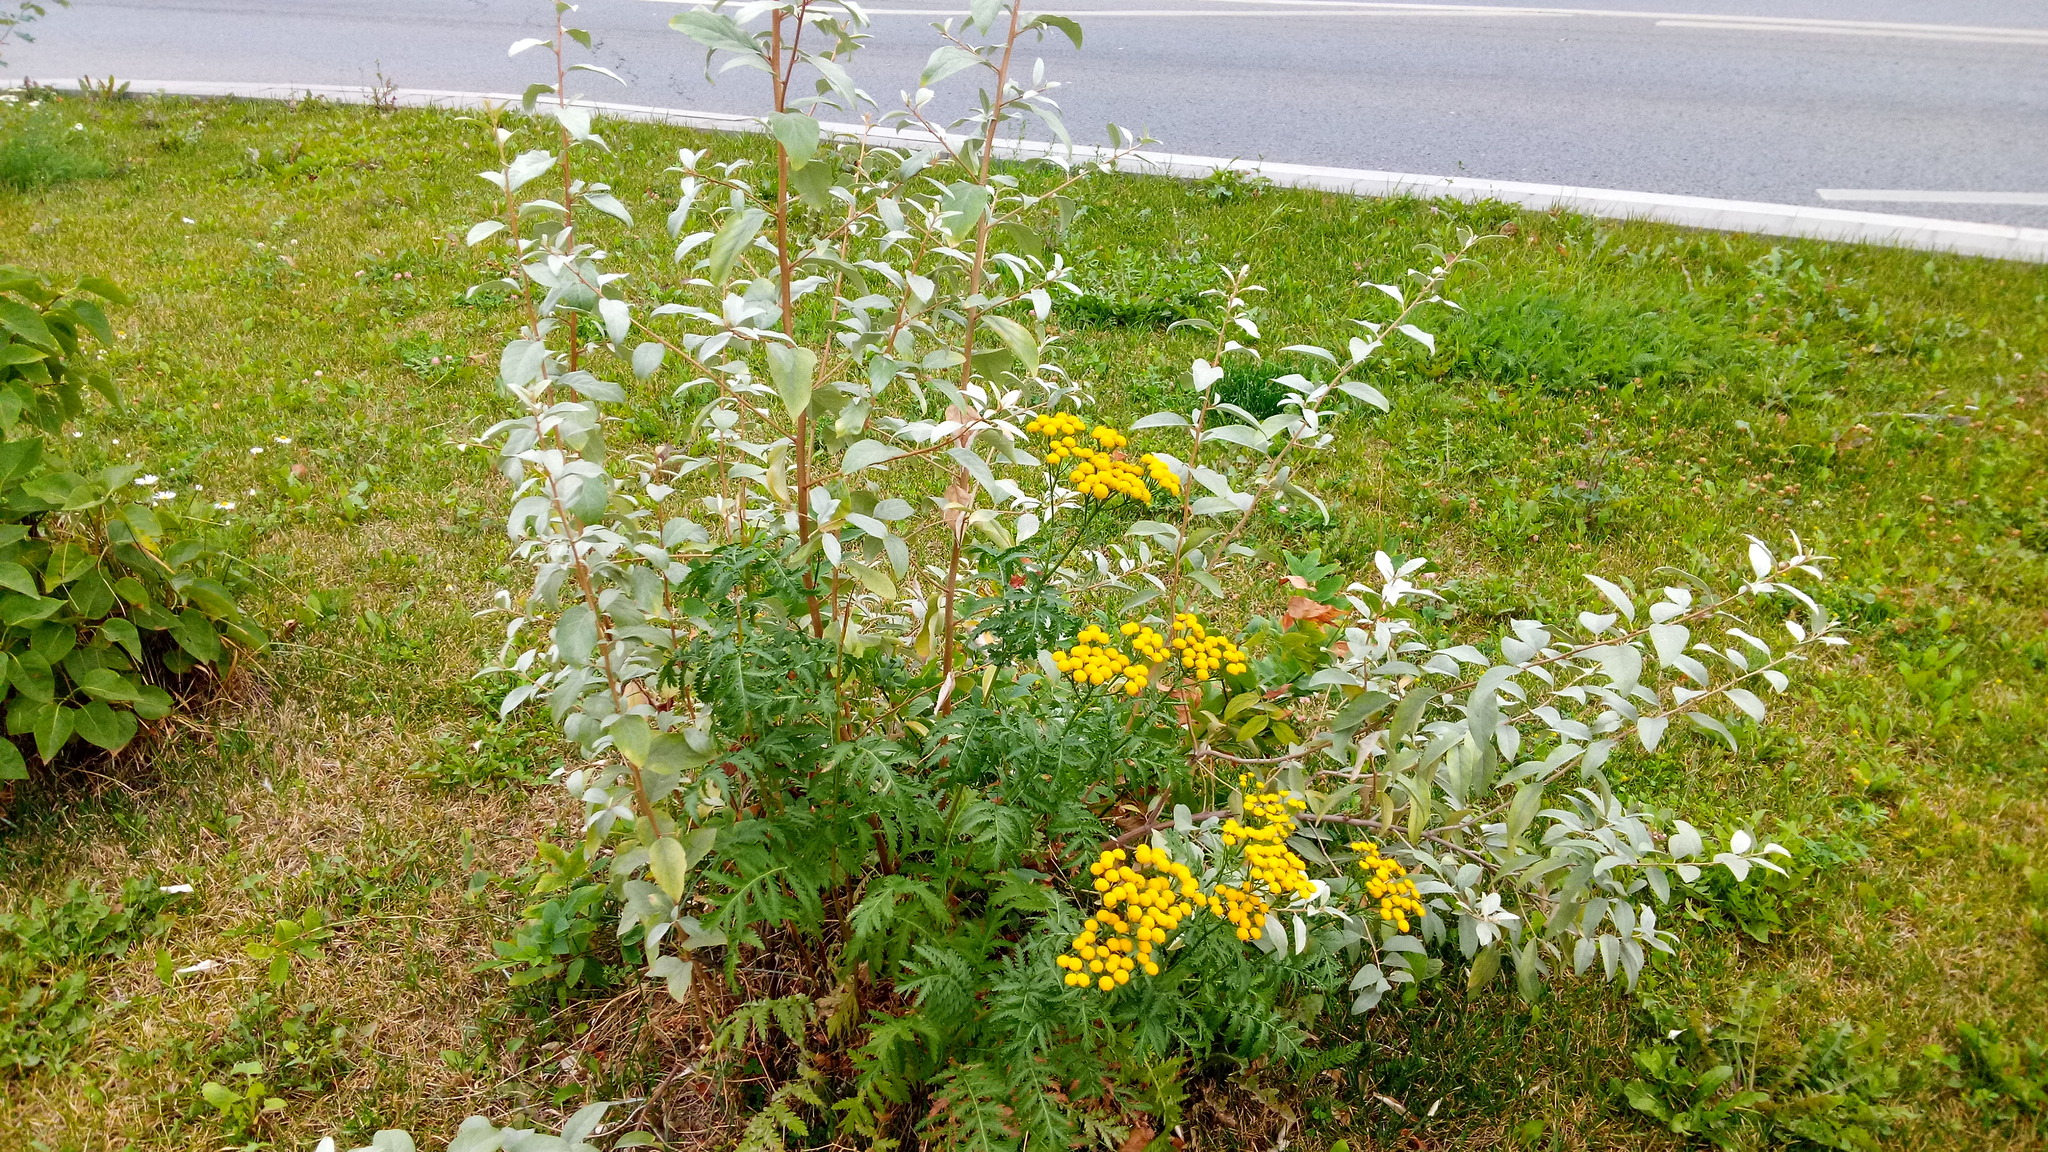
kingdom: Plantae
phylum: Tracheophyta
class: Magnoliopsida
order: Asterales
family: Asteraceae
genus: Tanacetum
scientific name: Tanacetum vulgare
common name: Common tansy
